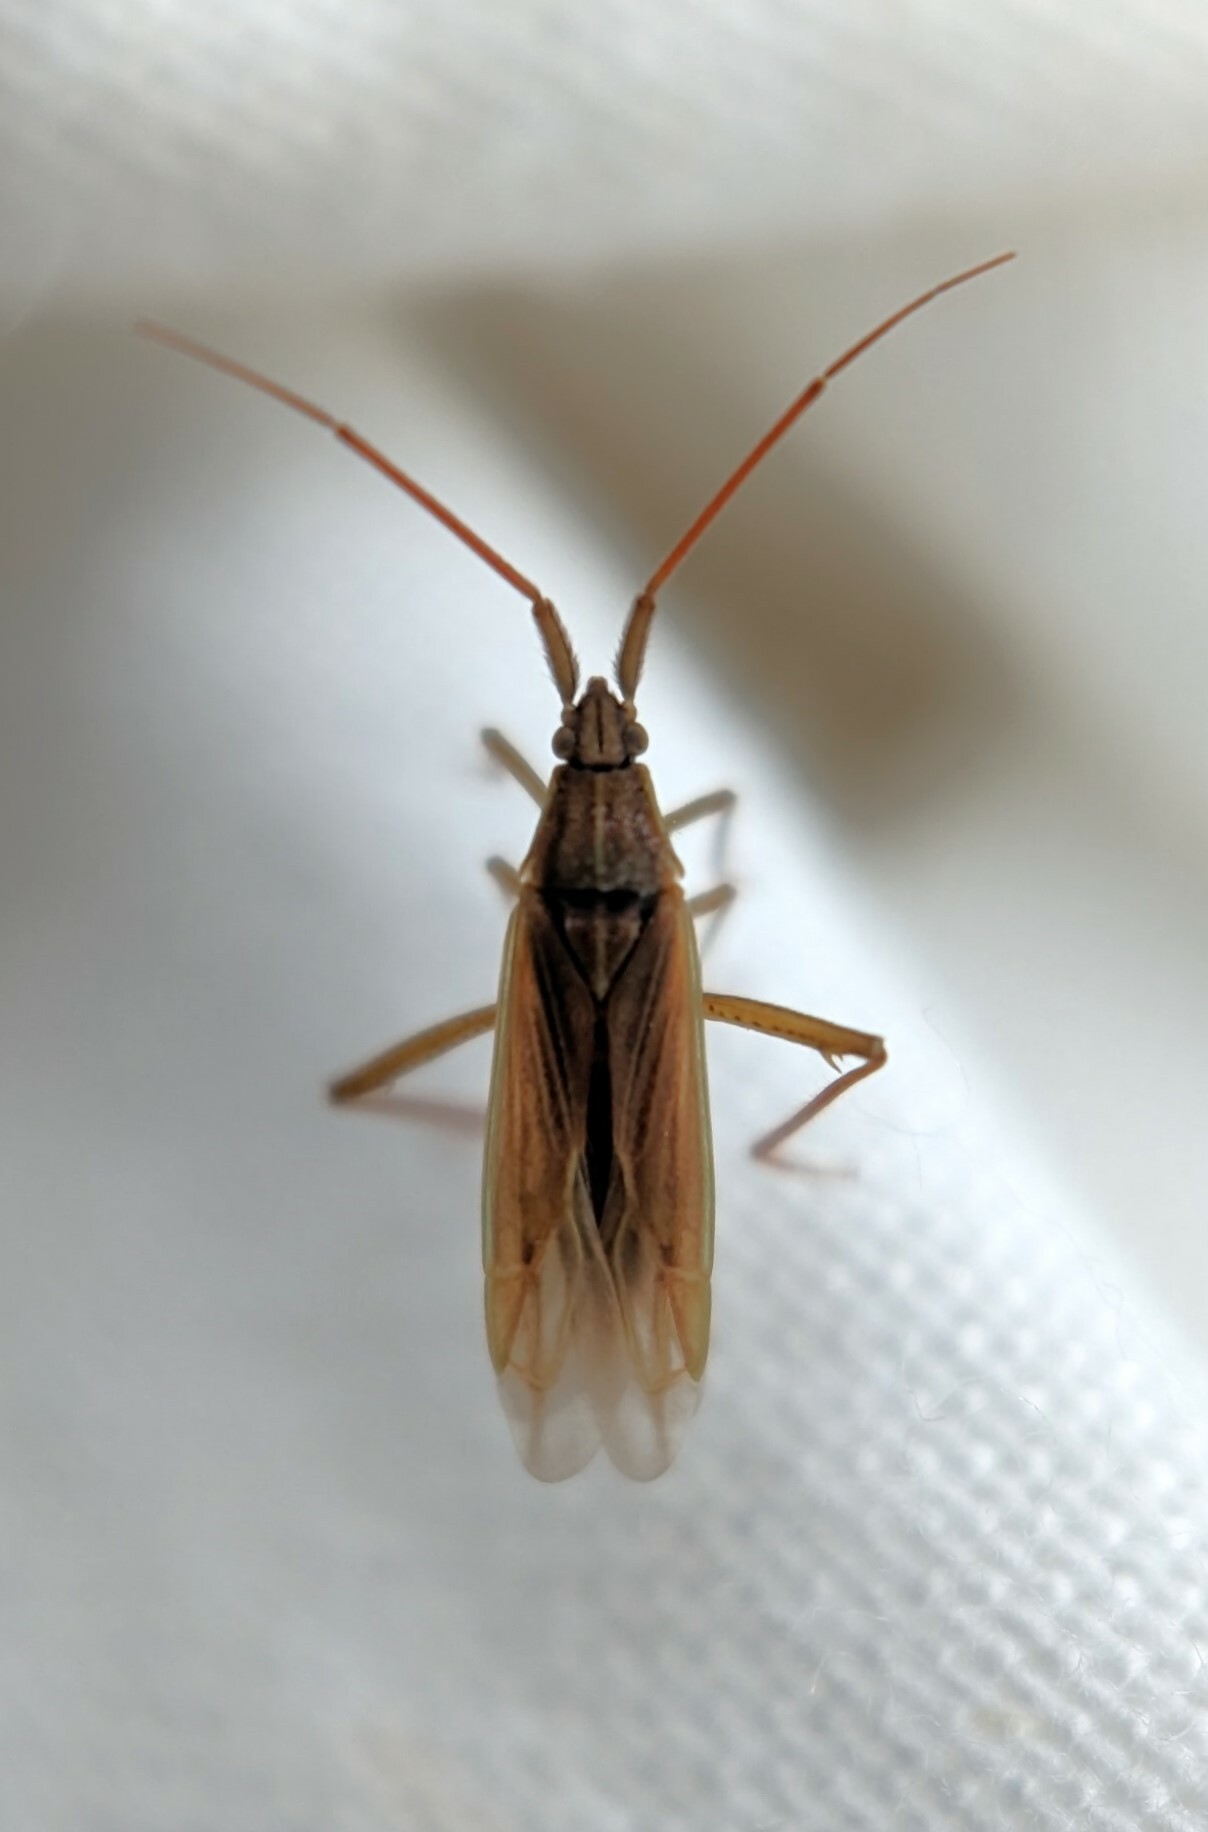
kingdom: Animalia
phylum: Arthropoda
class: Insecta
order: Hemiptera
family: Miridae
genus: Stenodema
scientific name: Stenodema calcarata
